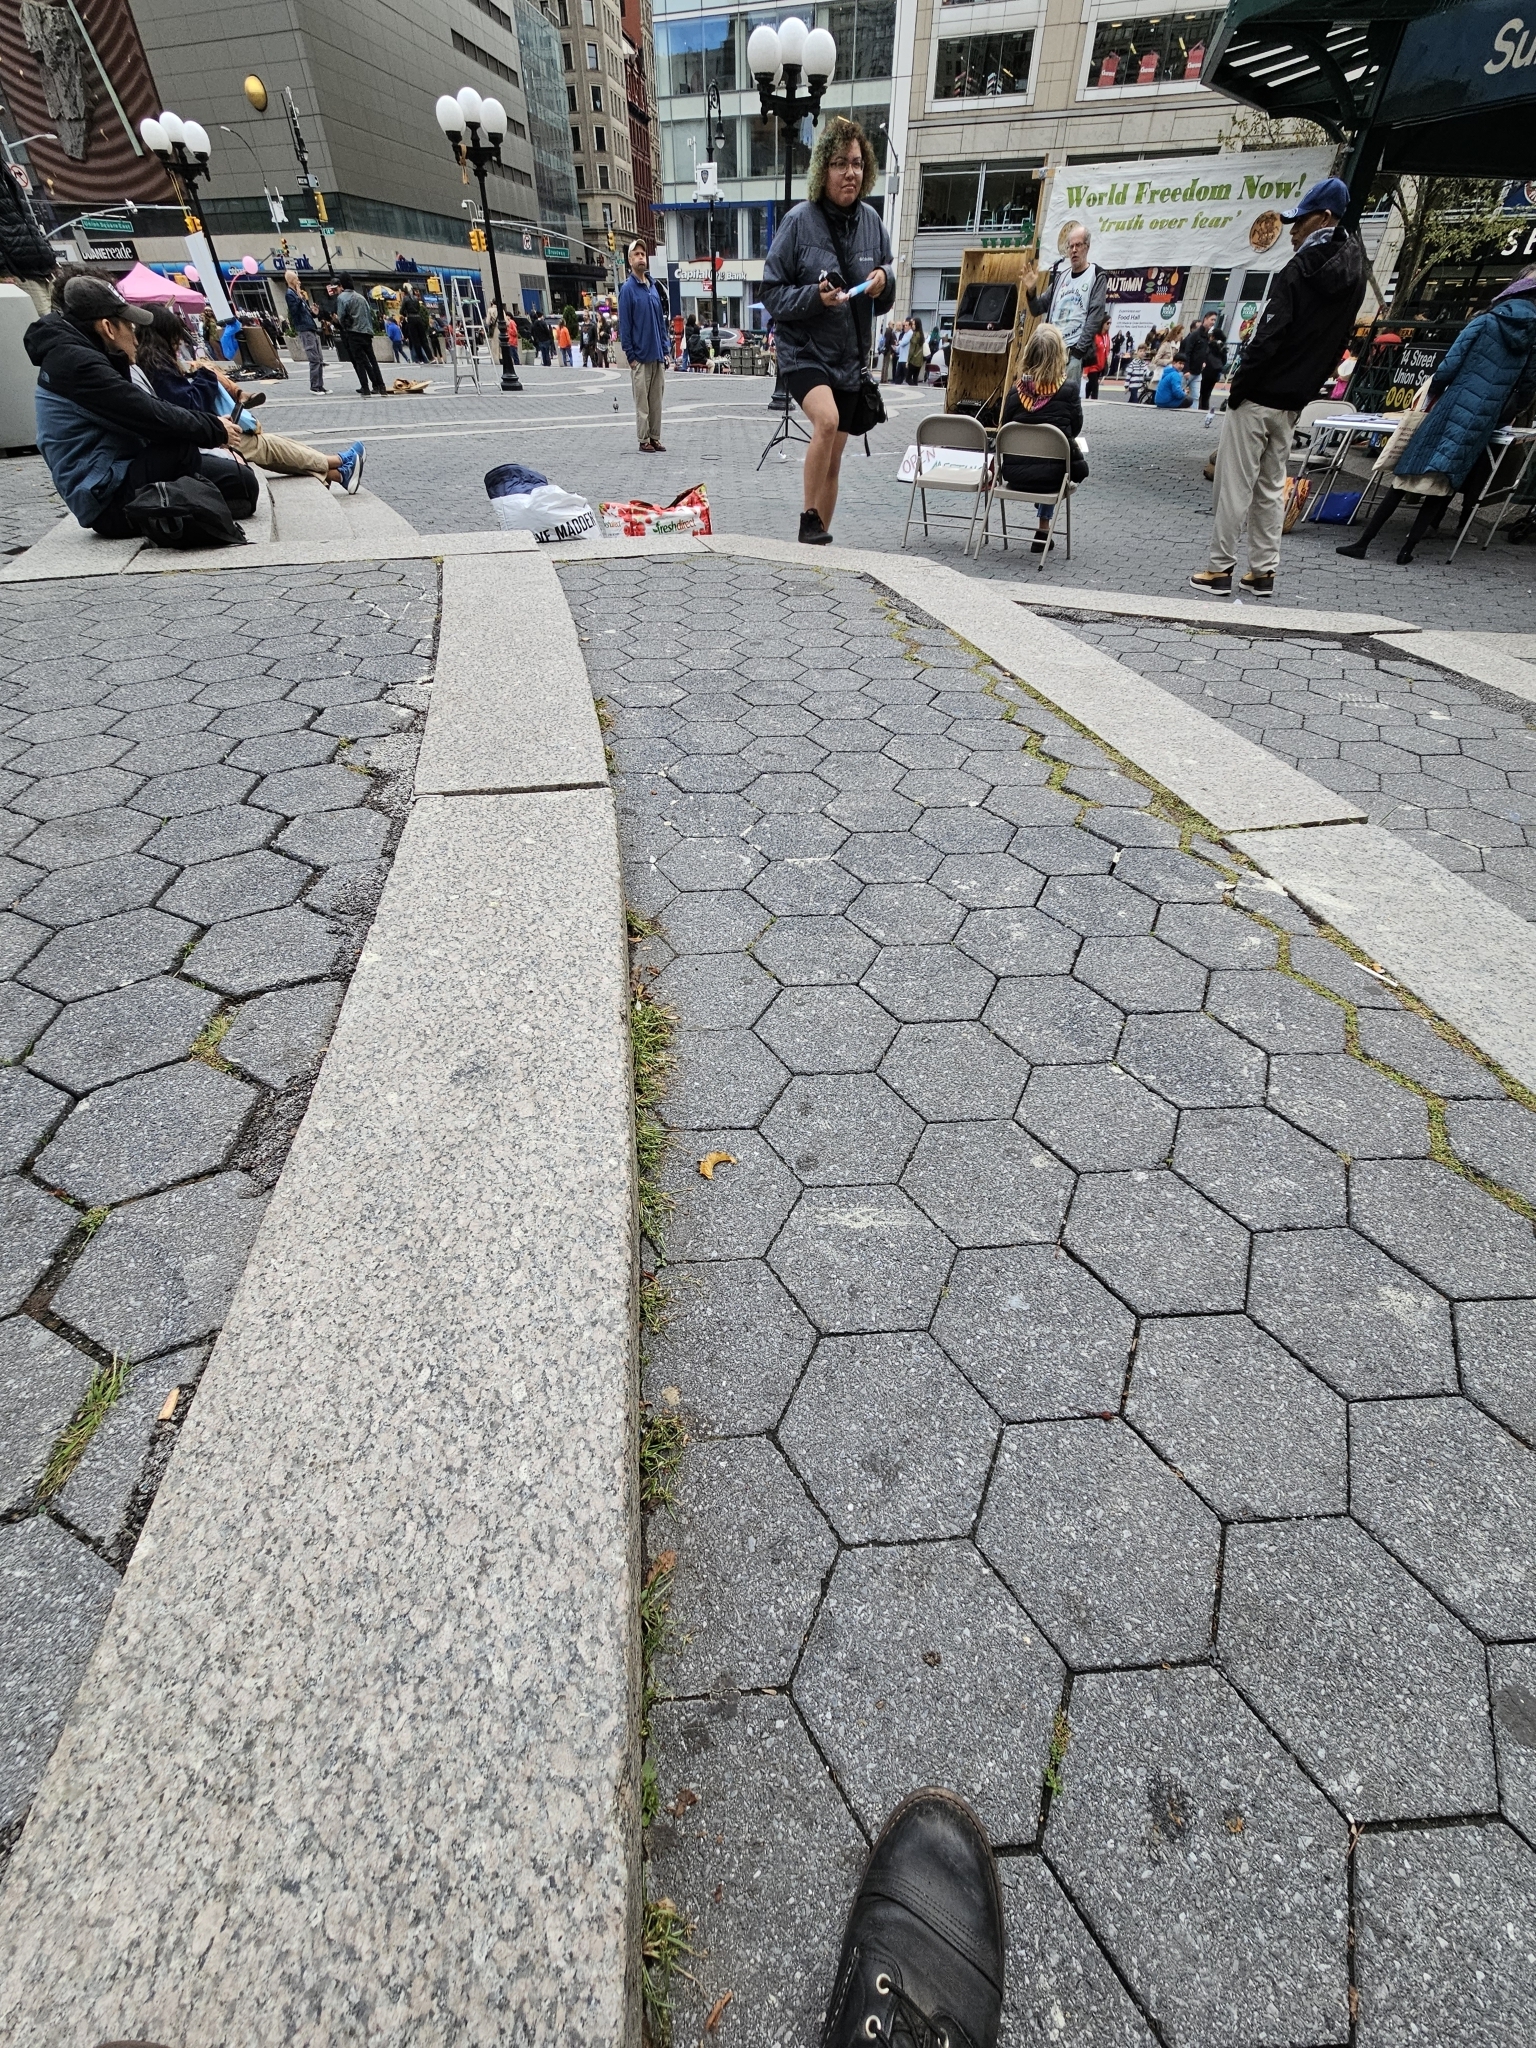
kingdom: Plantae
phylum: Tracheophyta
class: Liliopsida
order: Poales
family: Cyperaceae
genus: Cyperus
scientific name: Cyperus nipponicus
